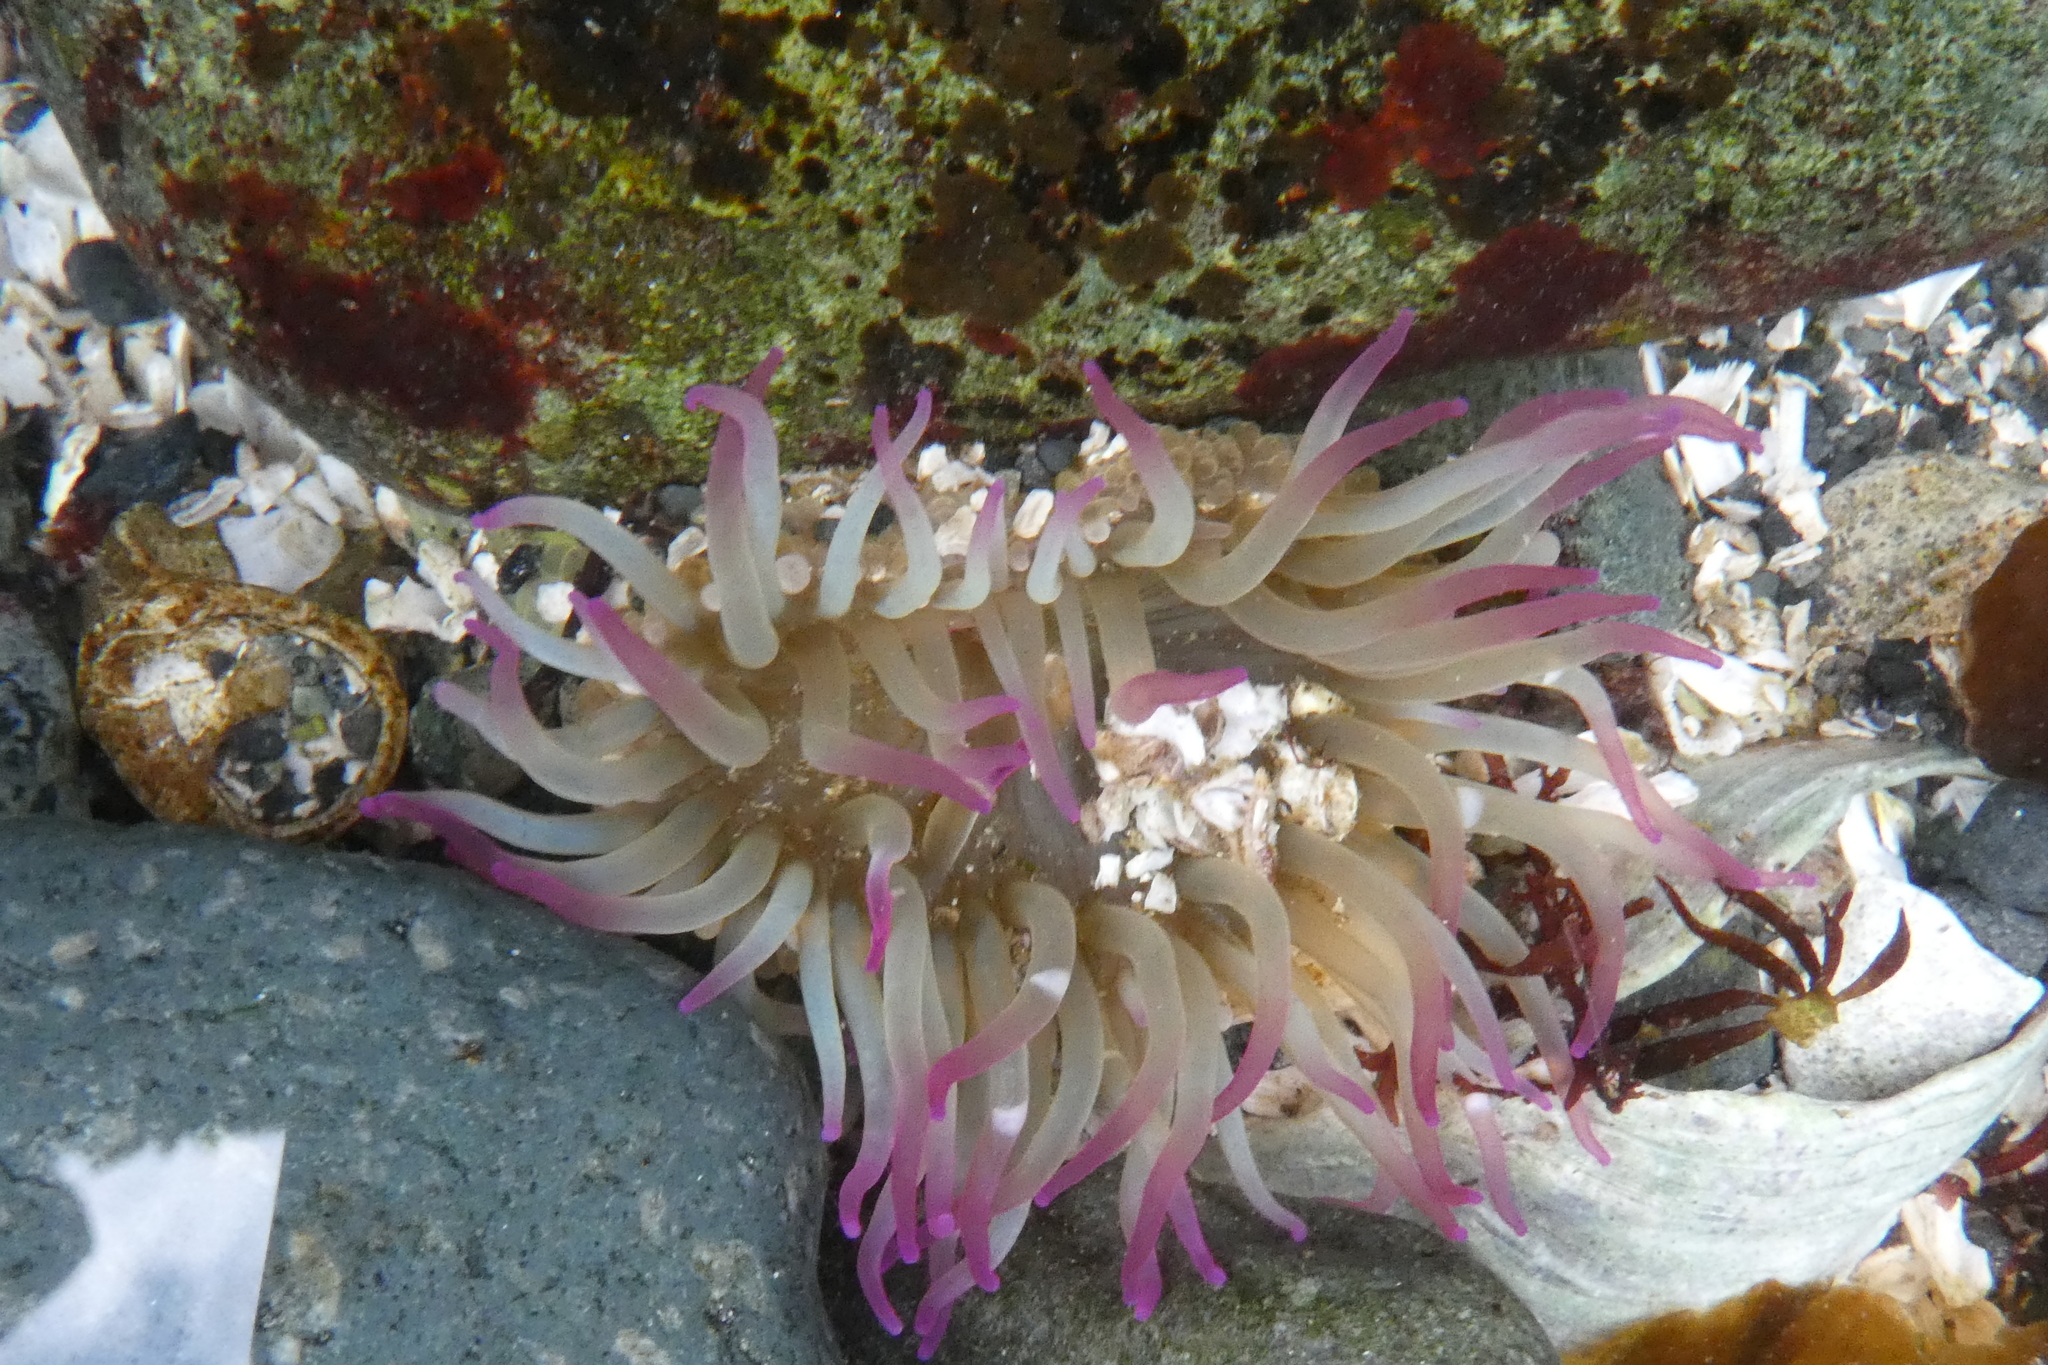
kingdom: Animalia
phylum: Cnidaria
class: Anthozoa
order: Actiniaria
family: Actiniidae
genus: Anthopleura
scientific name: Anthopleura elegantissima
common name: Clonal anemone
